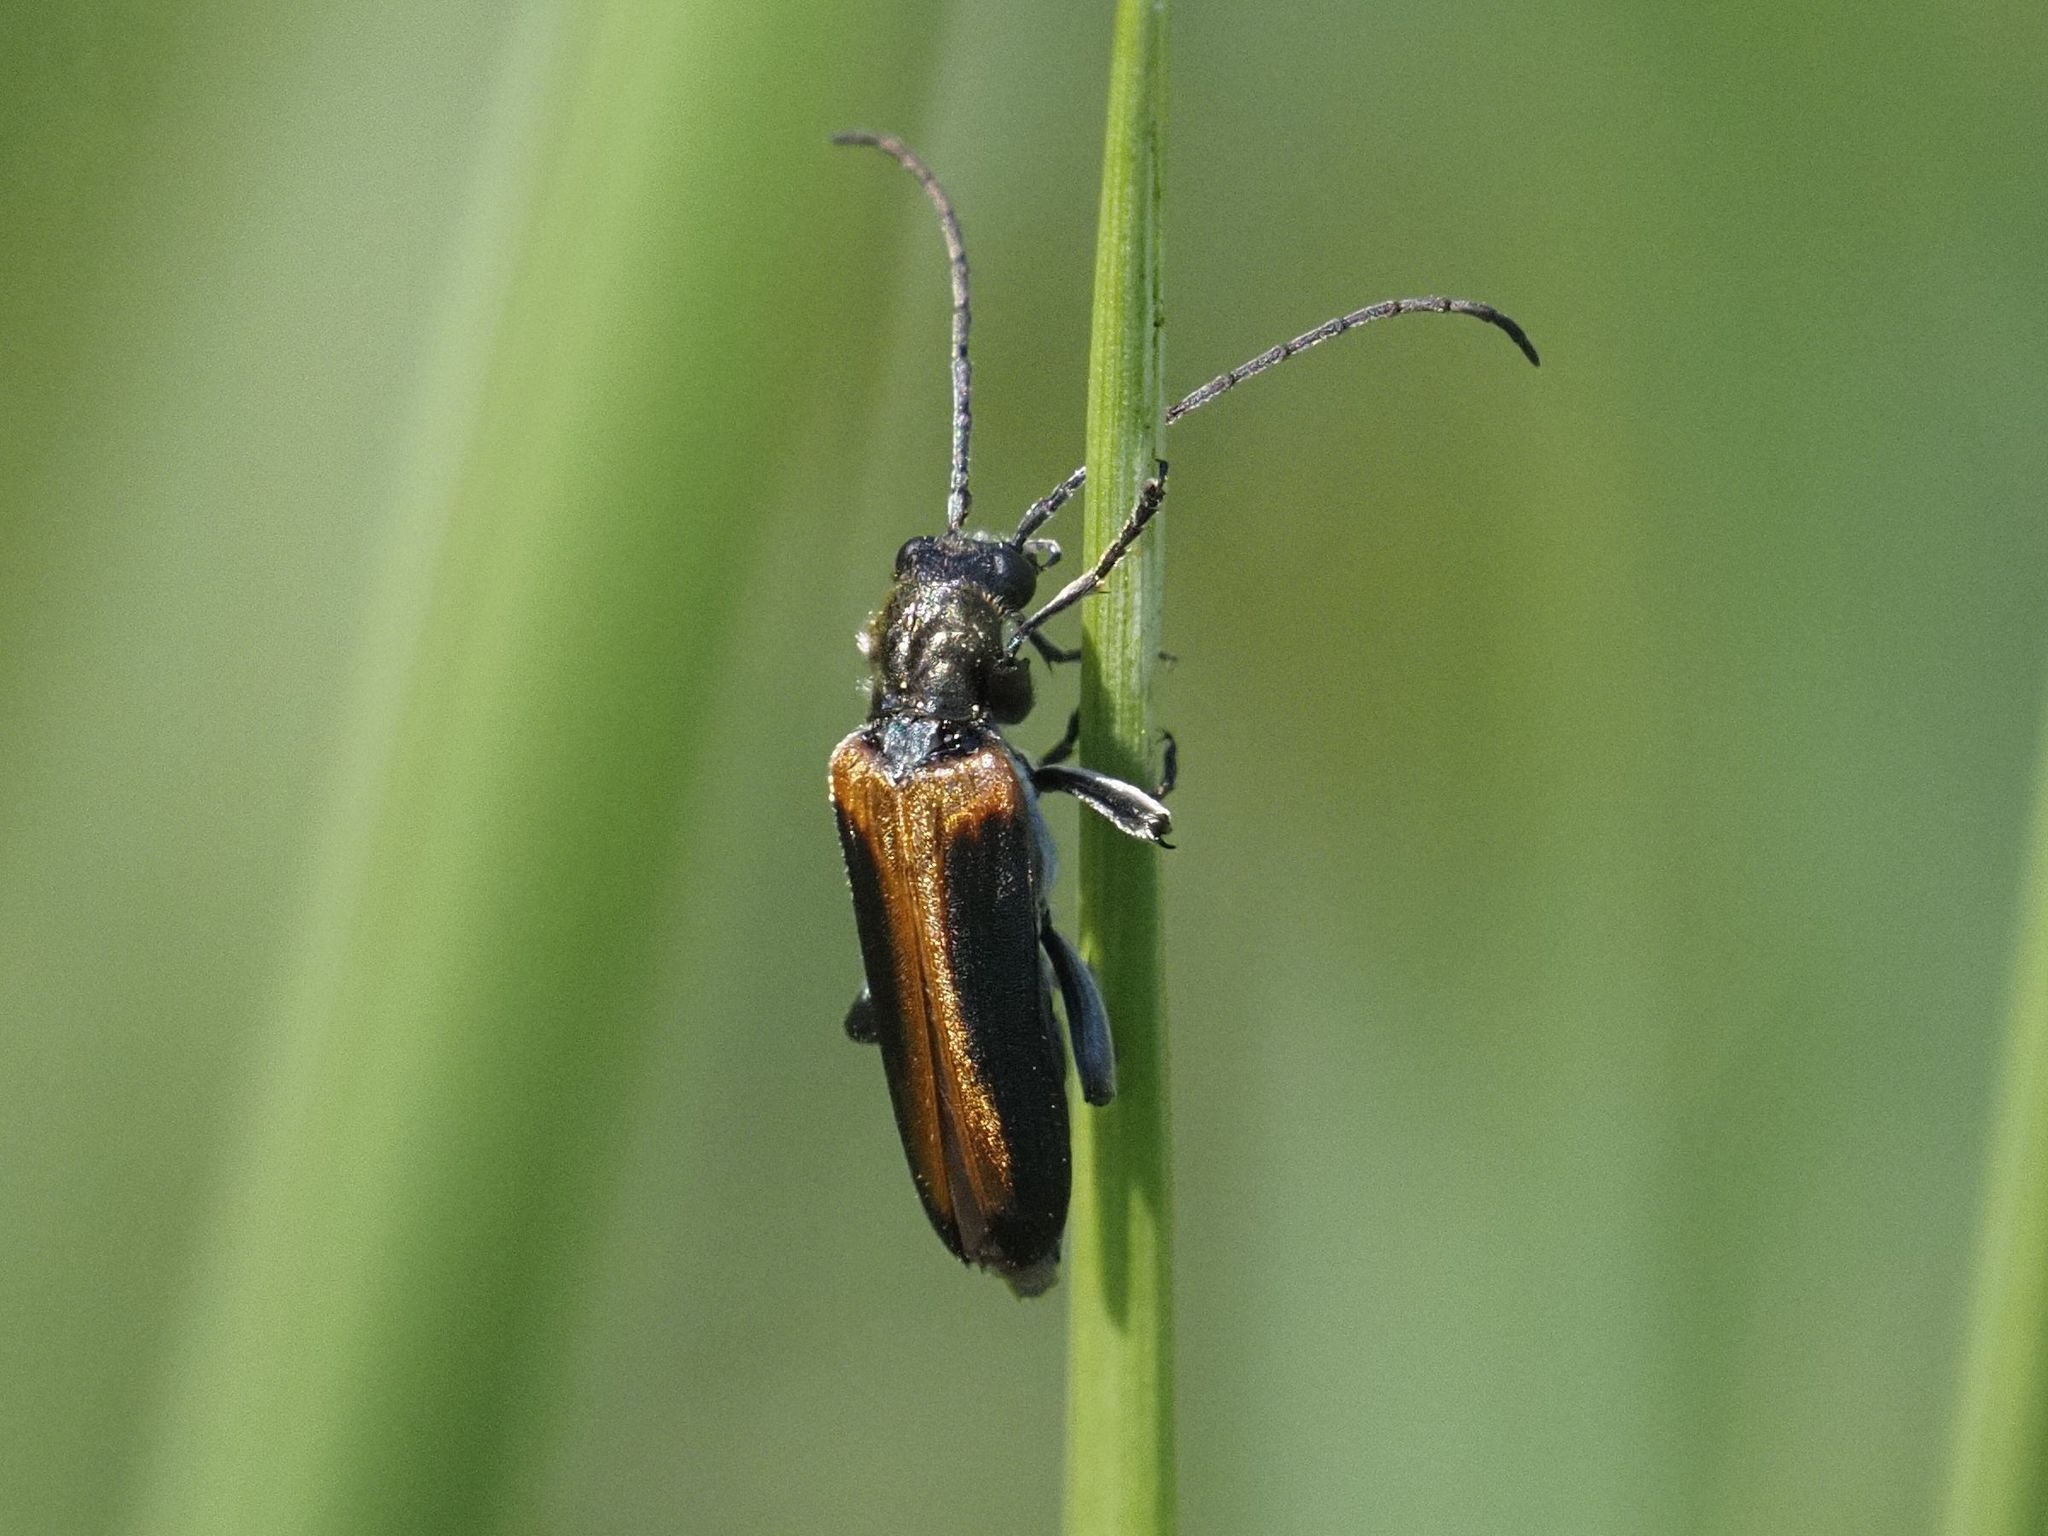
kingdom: Animalia
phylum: Arthropoda
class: Insecta
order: Coleoptera
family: Oedemeridae
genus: Anogcodes
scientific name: Anogcodes melanurus
